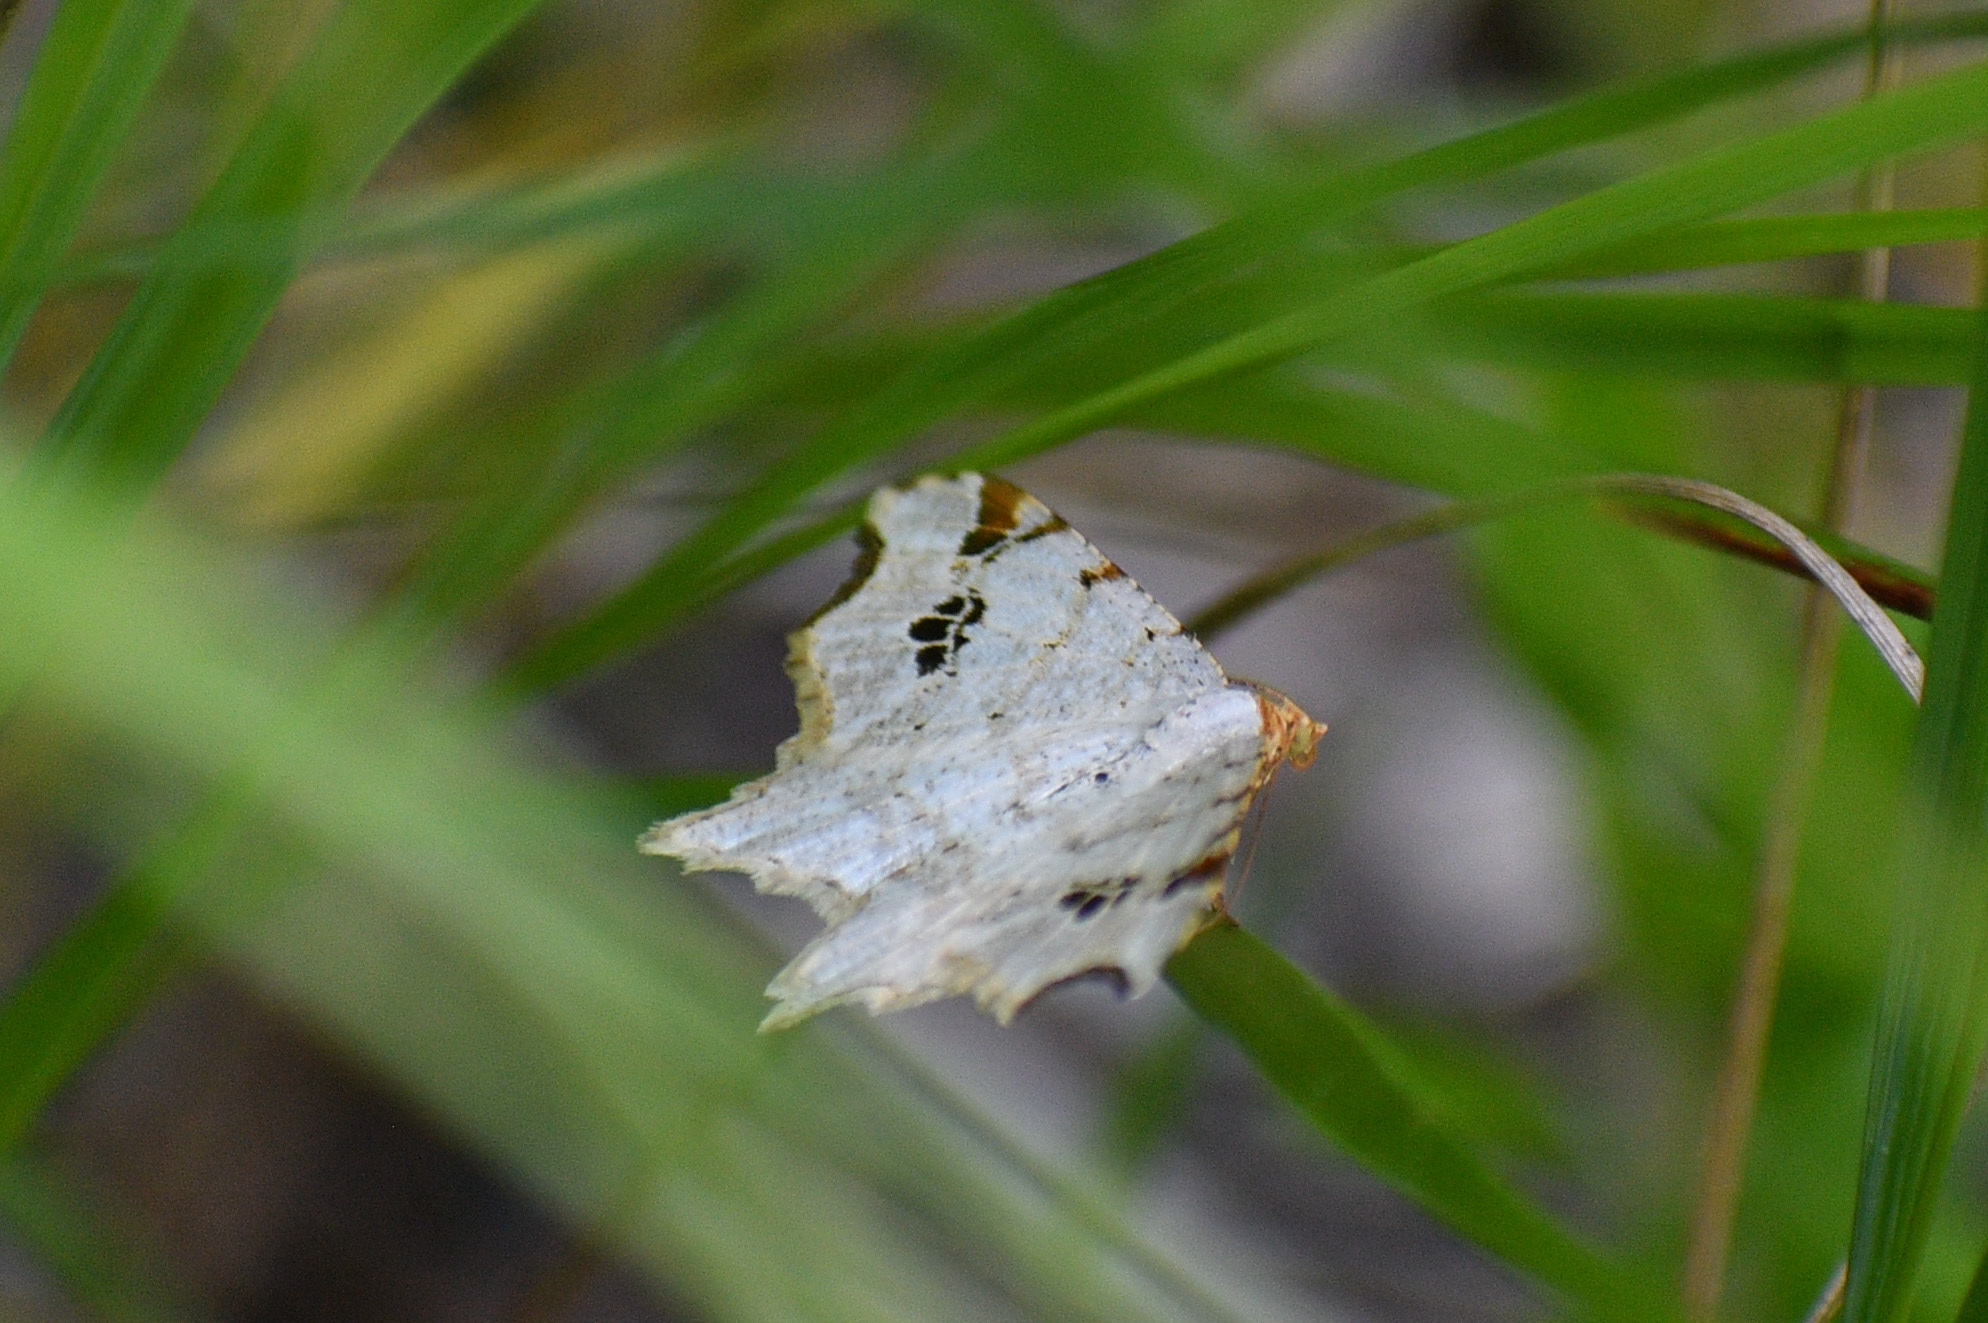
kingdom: Animalia
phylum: Arthropoda
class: Insecta
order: Lepidoptera
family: Geometridae
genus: Macaria
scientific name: Macaria ulsterata
